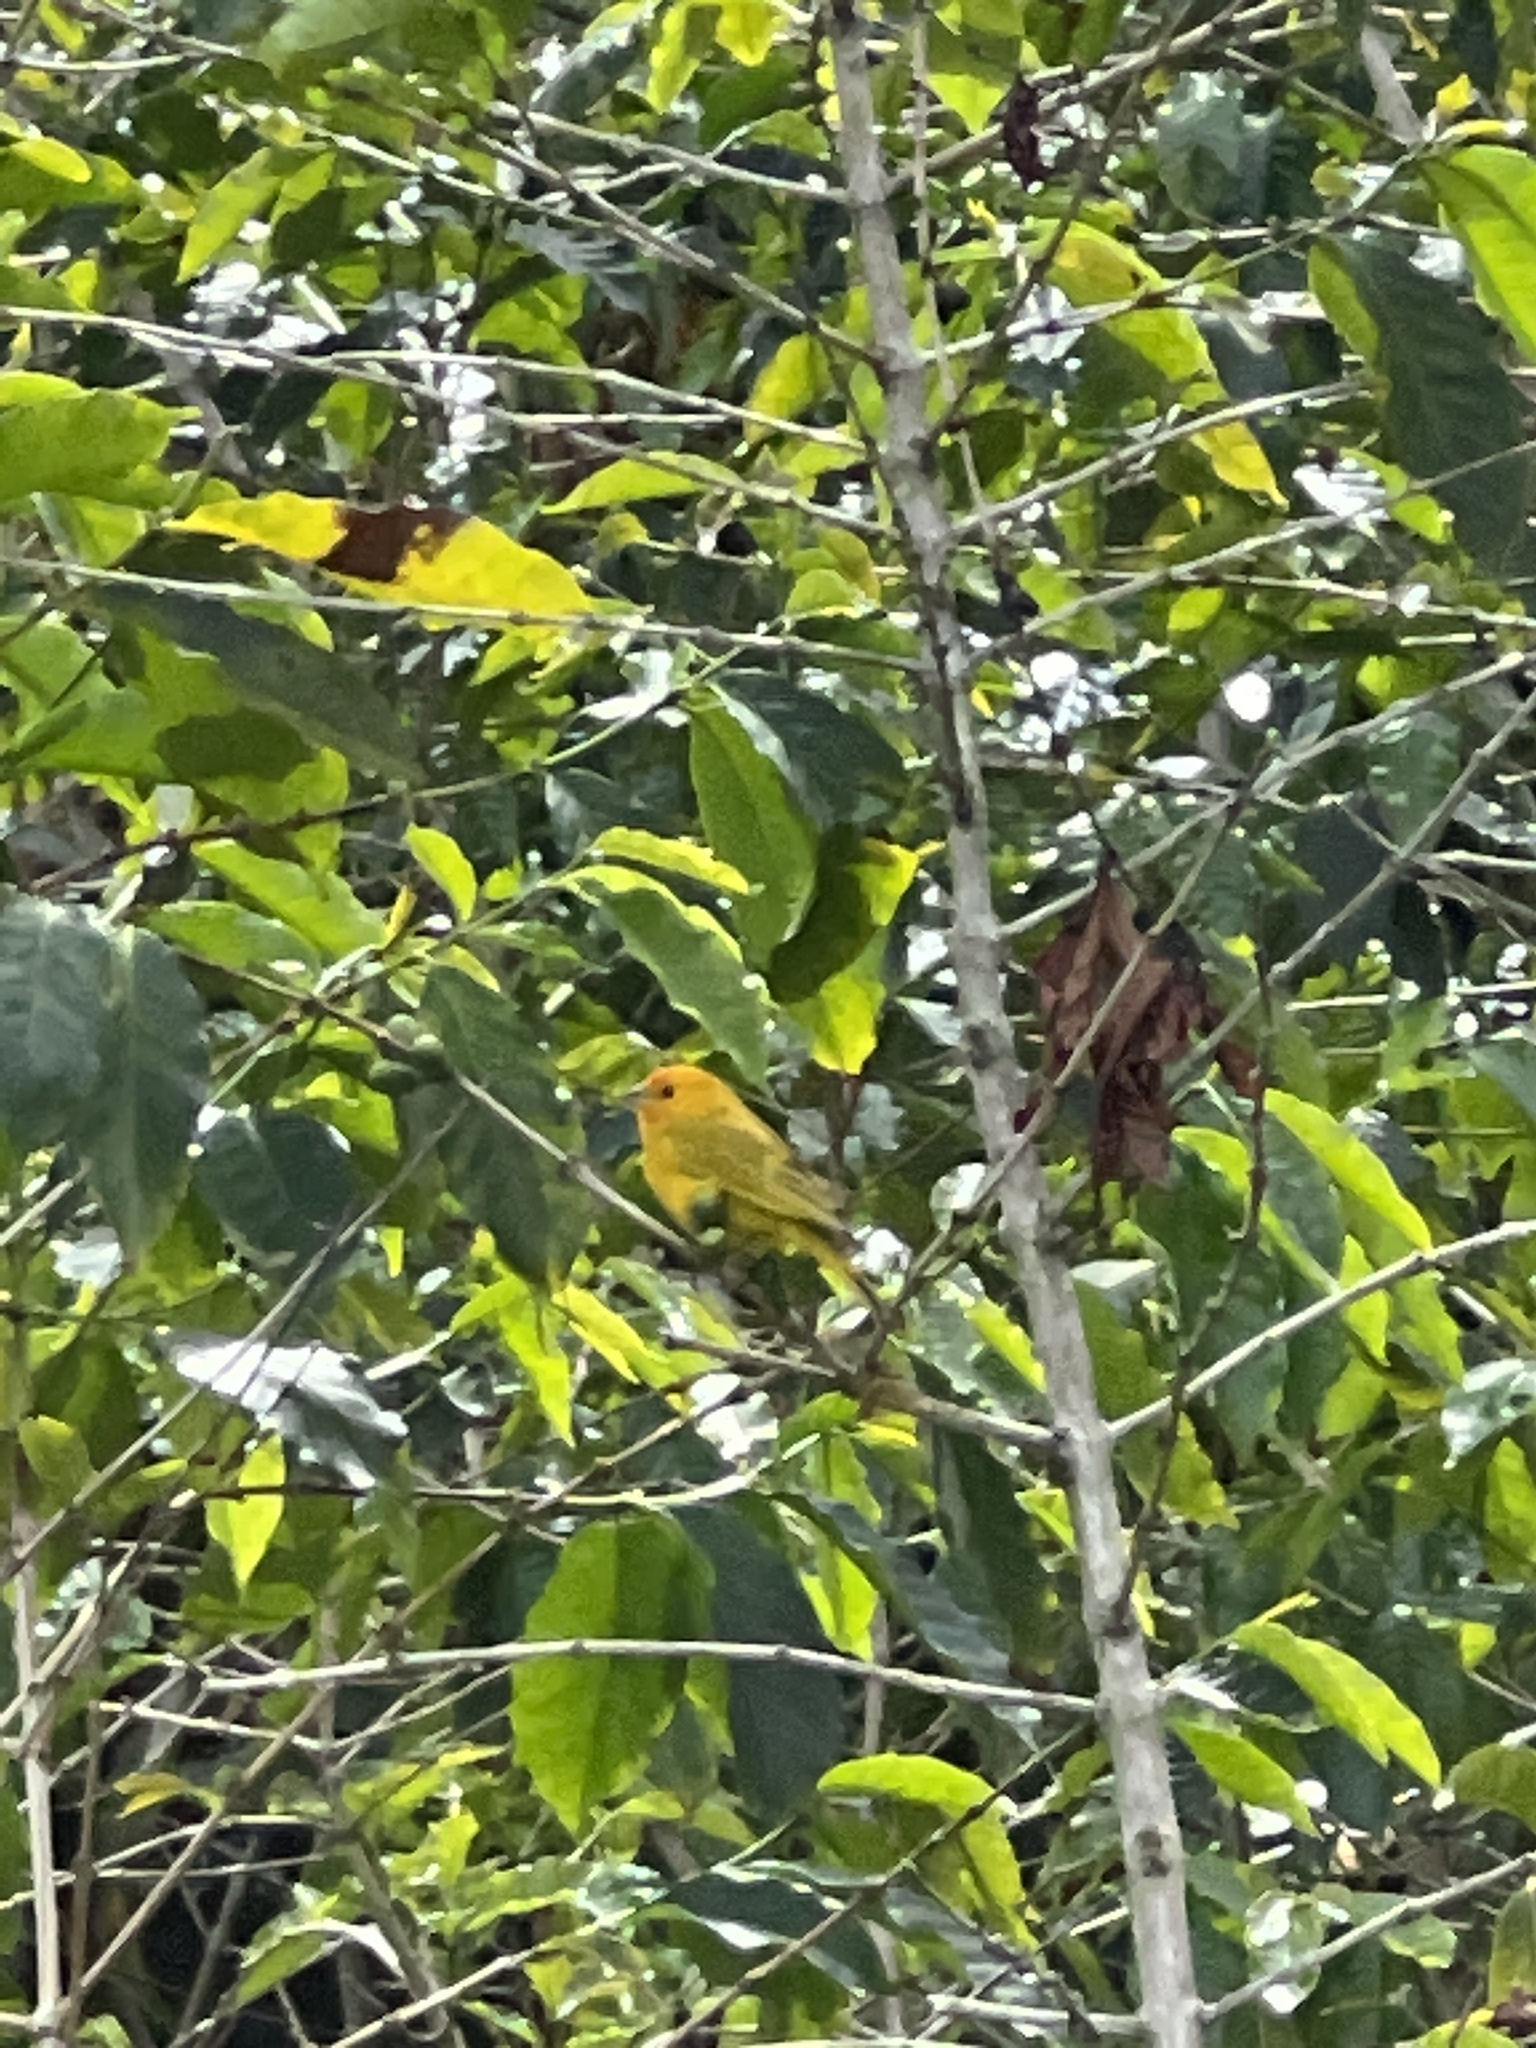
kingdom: Animalia
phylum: Chordata
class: Aves
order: Passeriformes
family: Thraupidae
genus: Sicalis
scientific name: Sicalis flaveola
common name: Saffron finch
